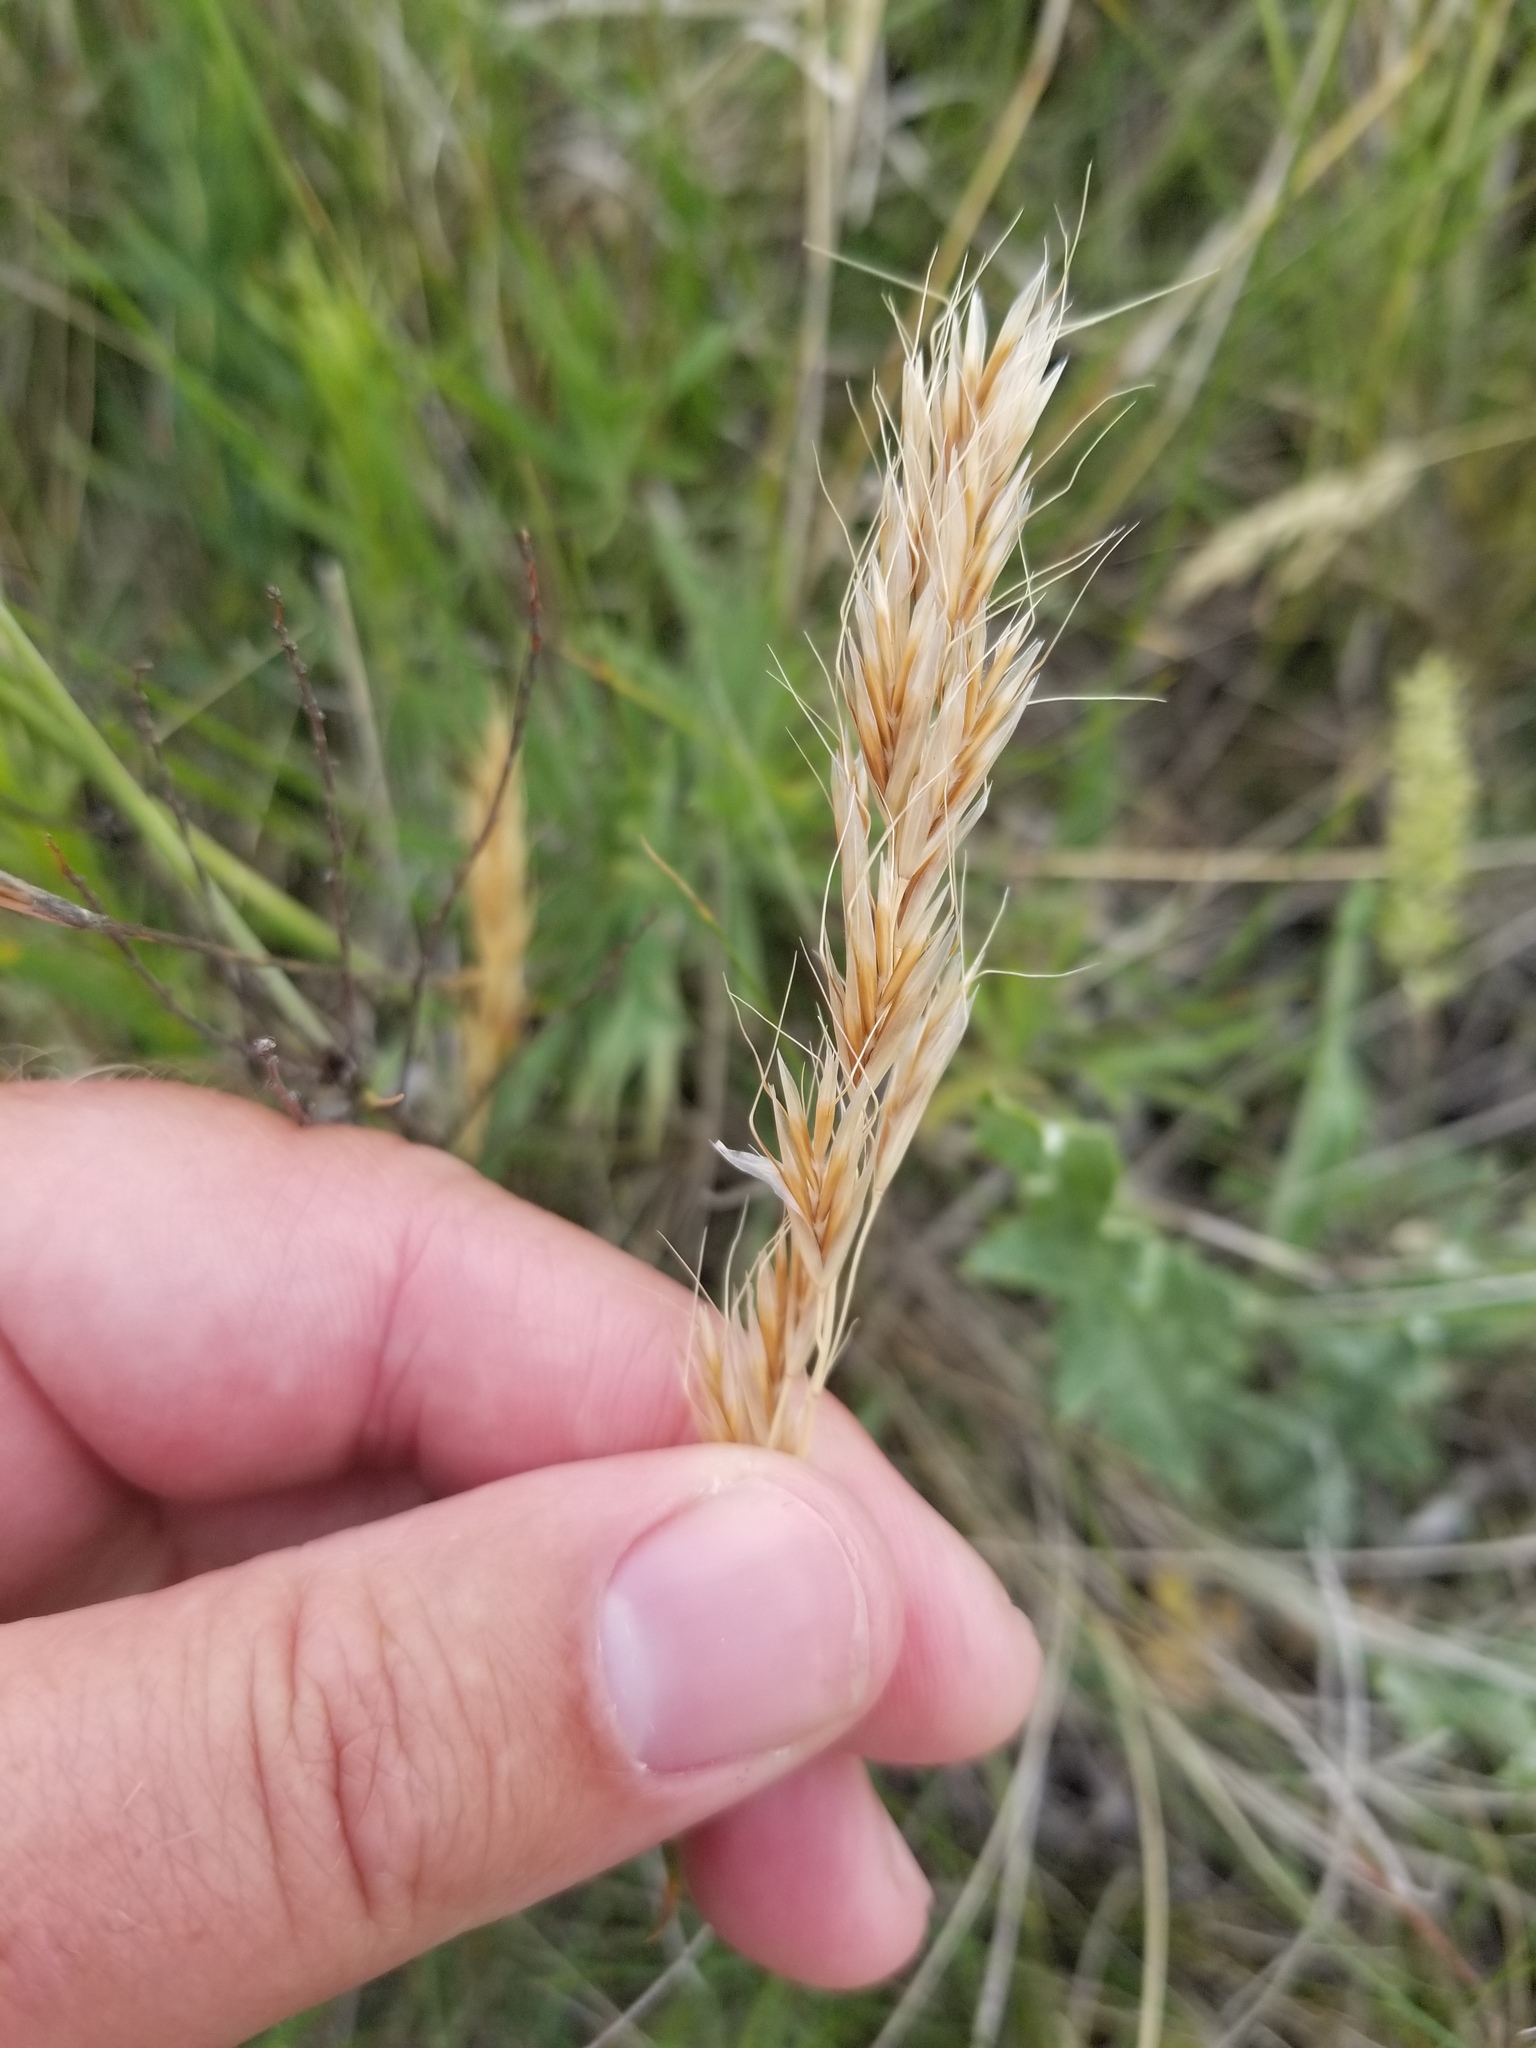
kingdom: Plantae
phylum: Tracheophyta
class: Liliopsida
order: Poales
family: Poaceae
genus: Helictochloa
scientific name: Helictochloa hookeri
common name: Hooker's alpine oatgrass
